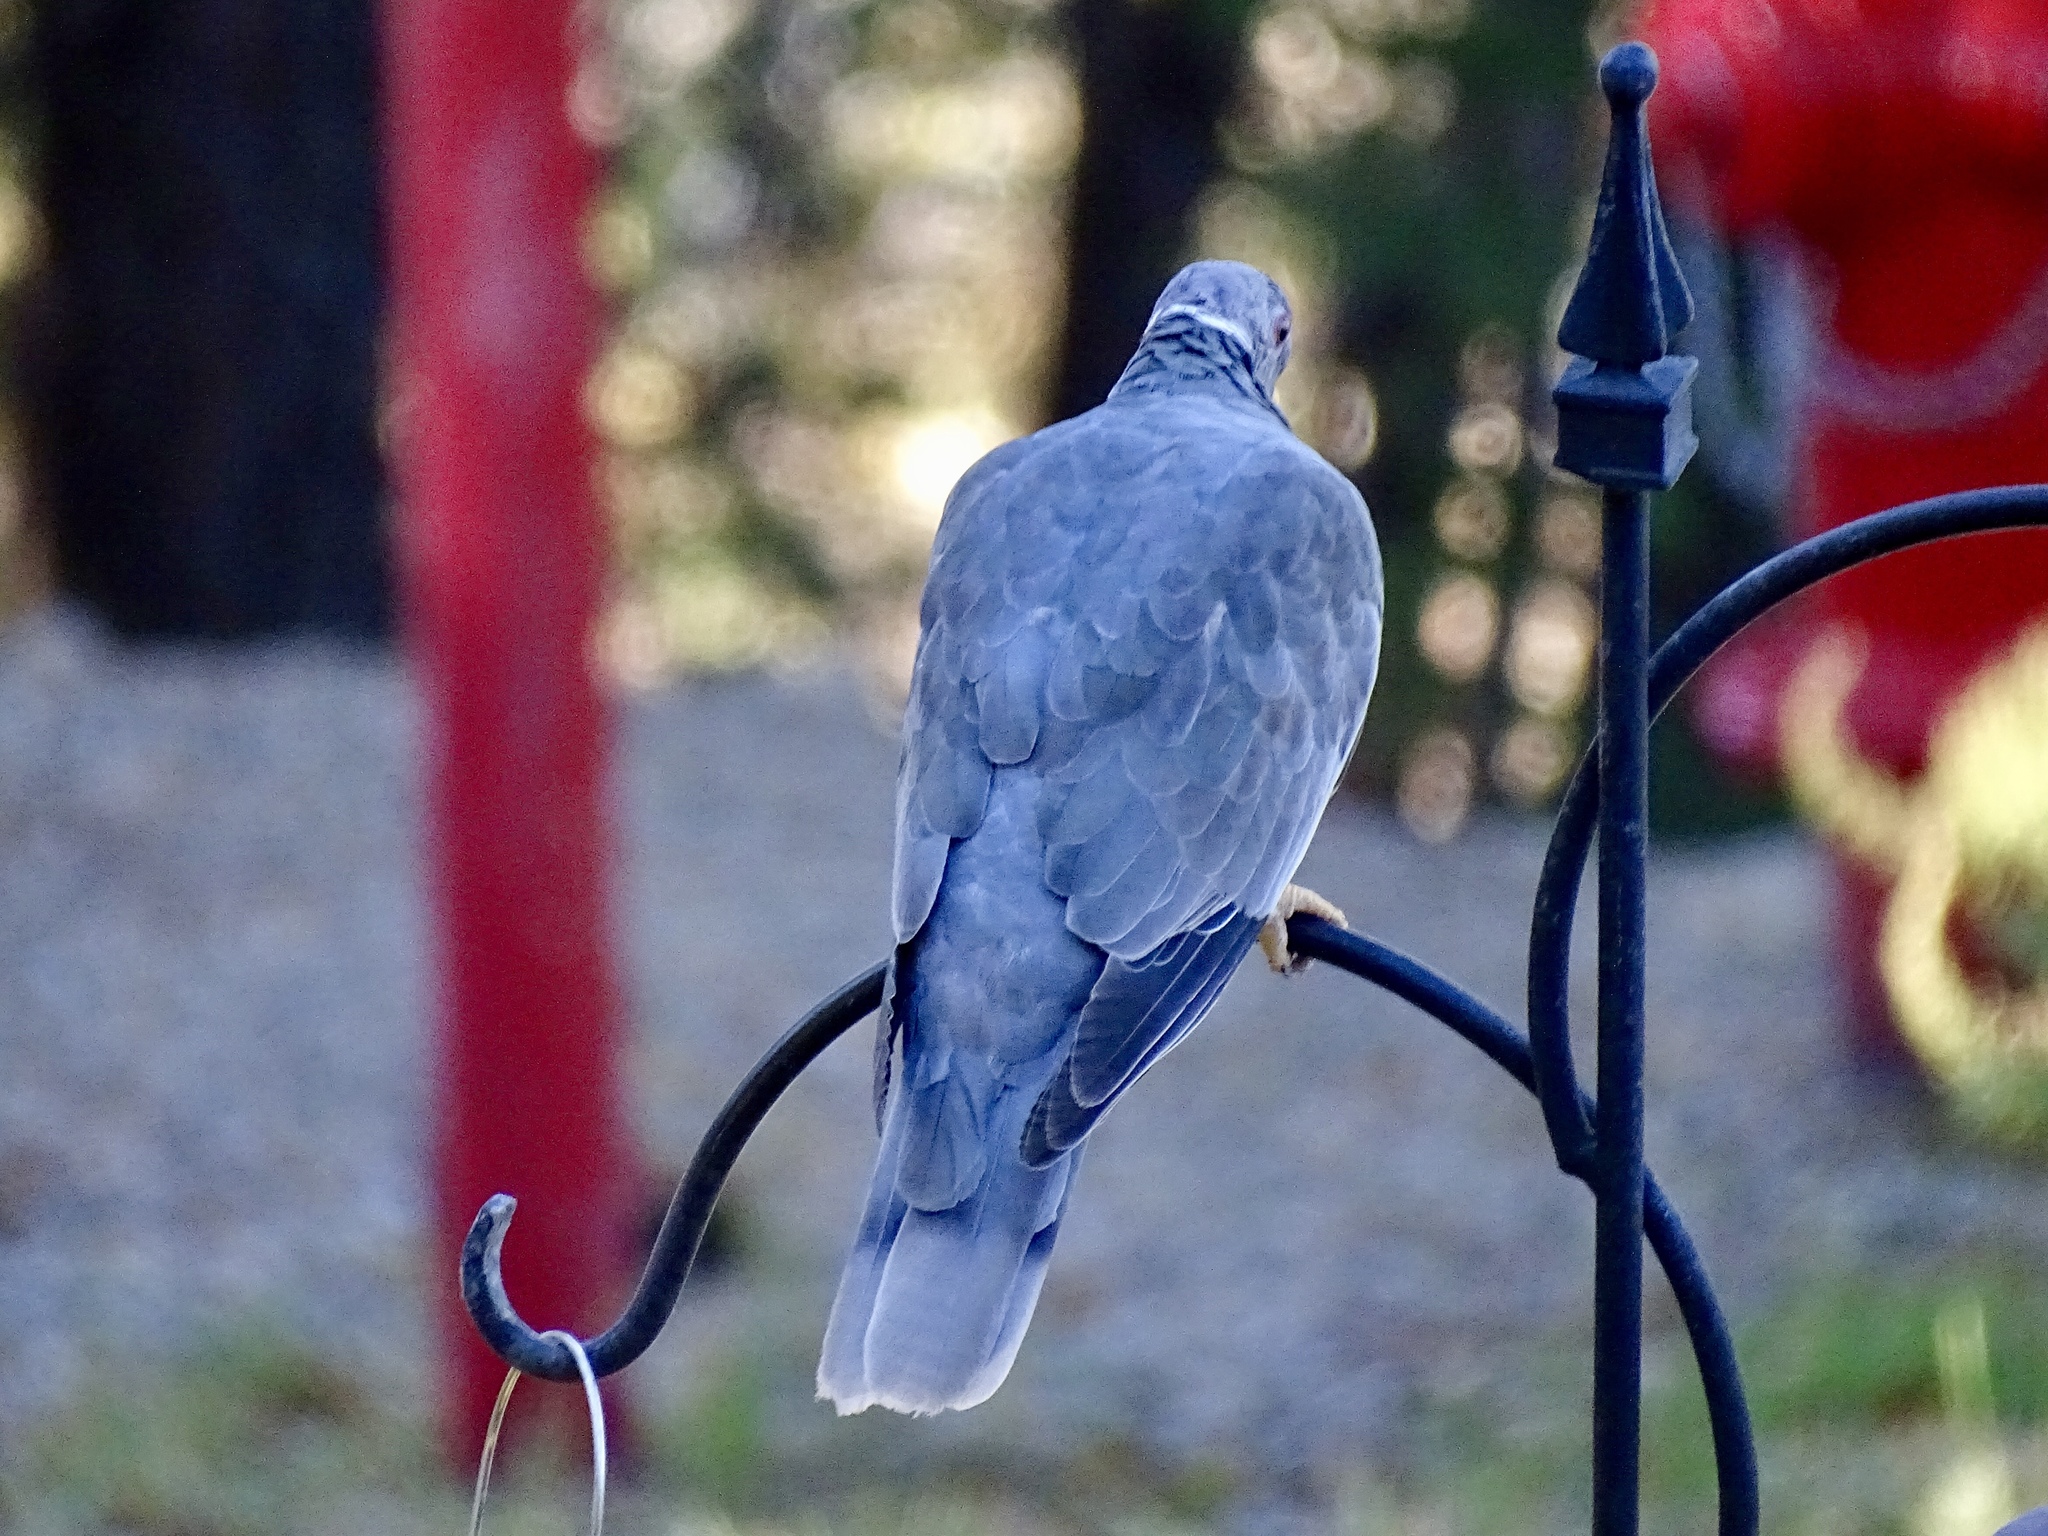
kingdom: Animalia
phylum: Chordata
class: Aves
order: Columbiformes
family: Columbidae
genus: Patagioenas
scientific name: Patagioenas fasciata
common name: Band-tailed pigeon
